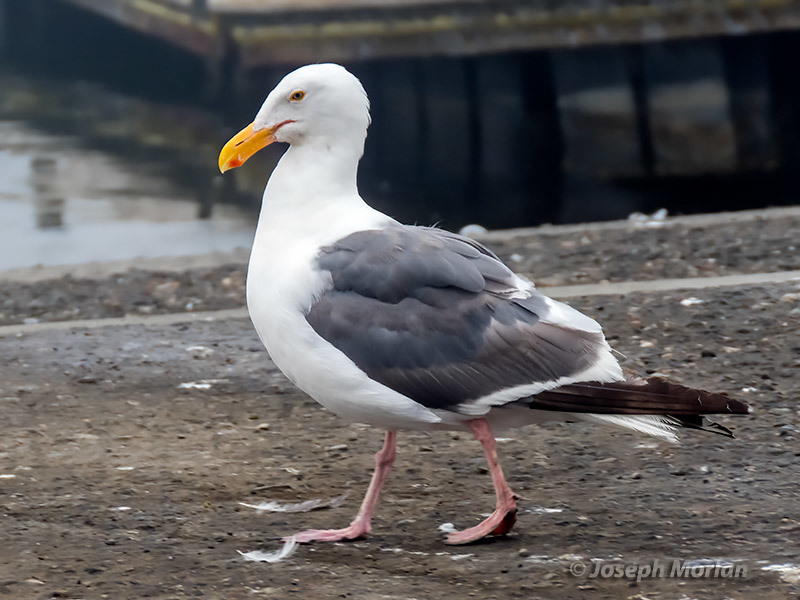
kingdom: Animalia
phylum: Chordata
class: Aves
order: Charadriiformes
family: Laridae
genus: Larus
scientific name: Larus occidentalis
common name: Western gull
